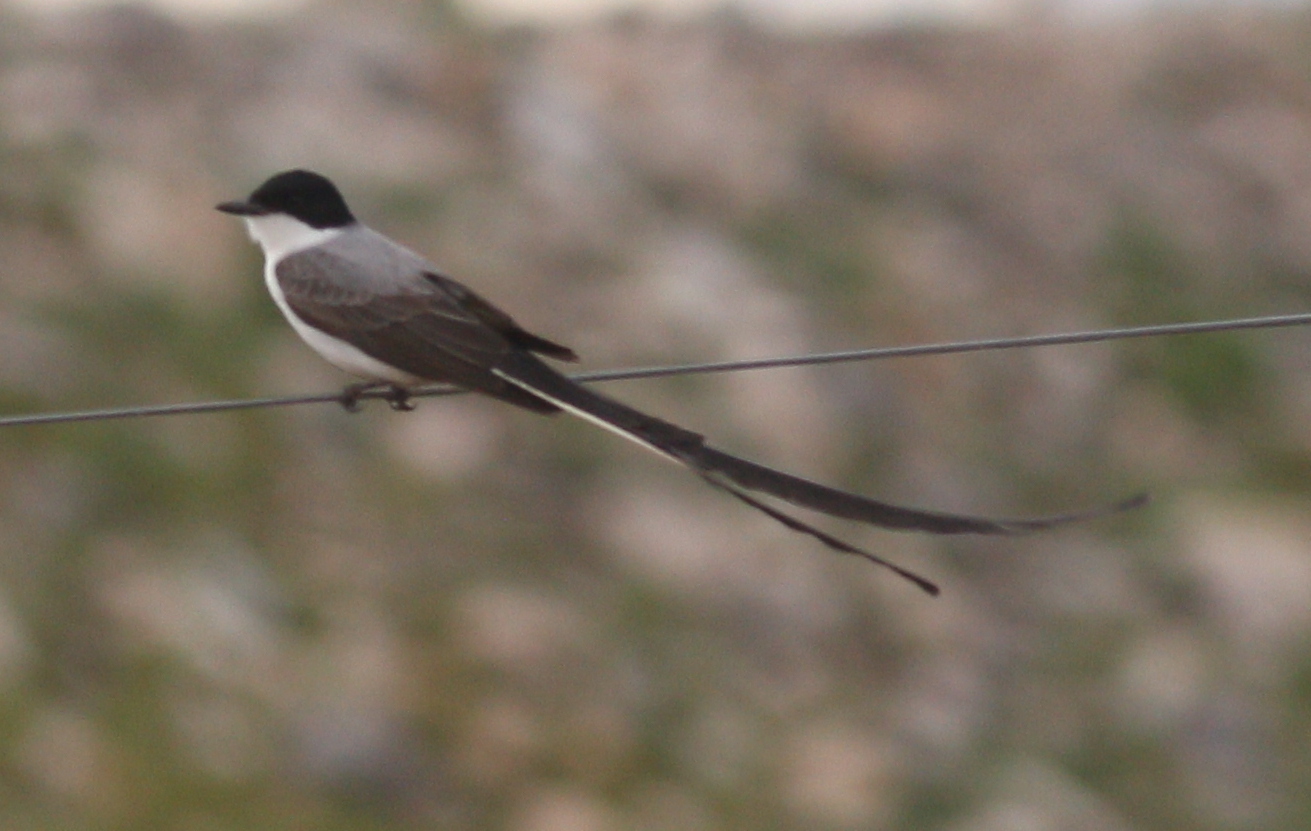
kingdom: Animalia
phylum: Chordata
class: Aves
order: Passeriformes
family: Tyrannidae
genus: Tyrannus
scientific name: Tyrannus savana
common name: Fork-tailed flycatcher
